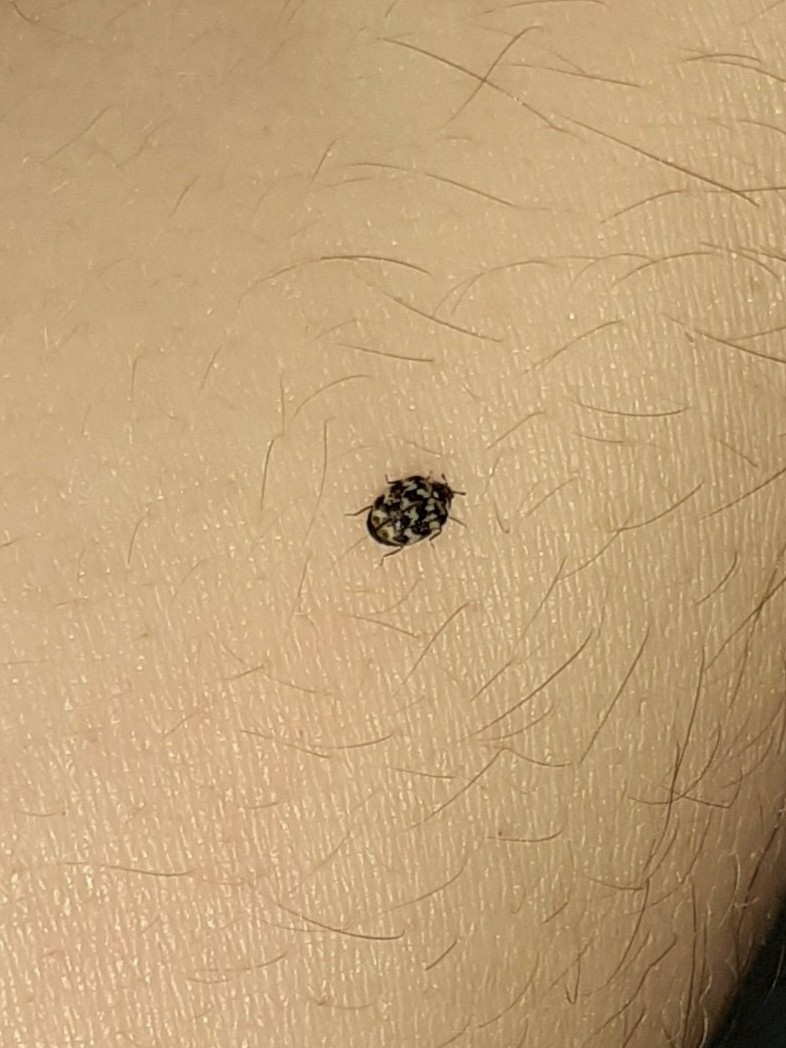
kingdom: Animalia
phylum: Arthropoda
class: Insecta
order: Coleoptera
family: Dermestidae
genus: Anthrenus
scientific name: Anthrenus verbasci
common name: Varied carpet beetle
